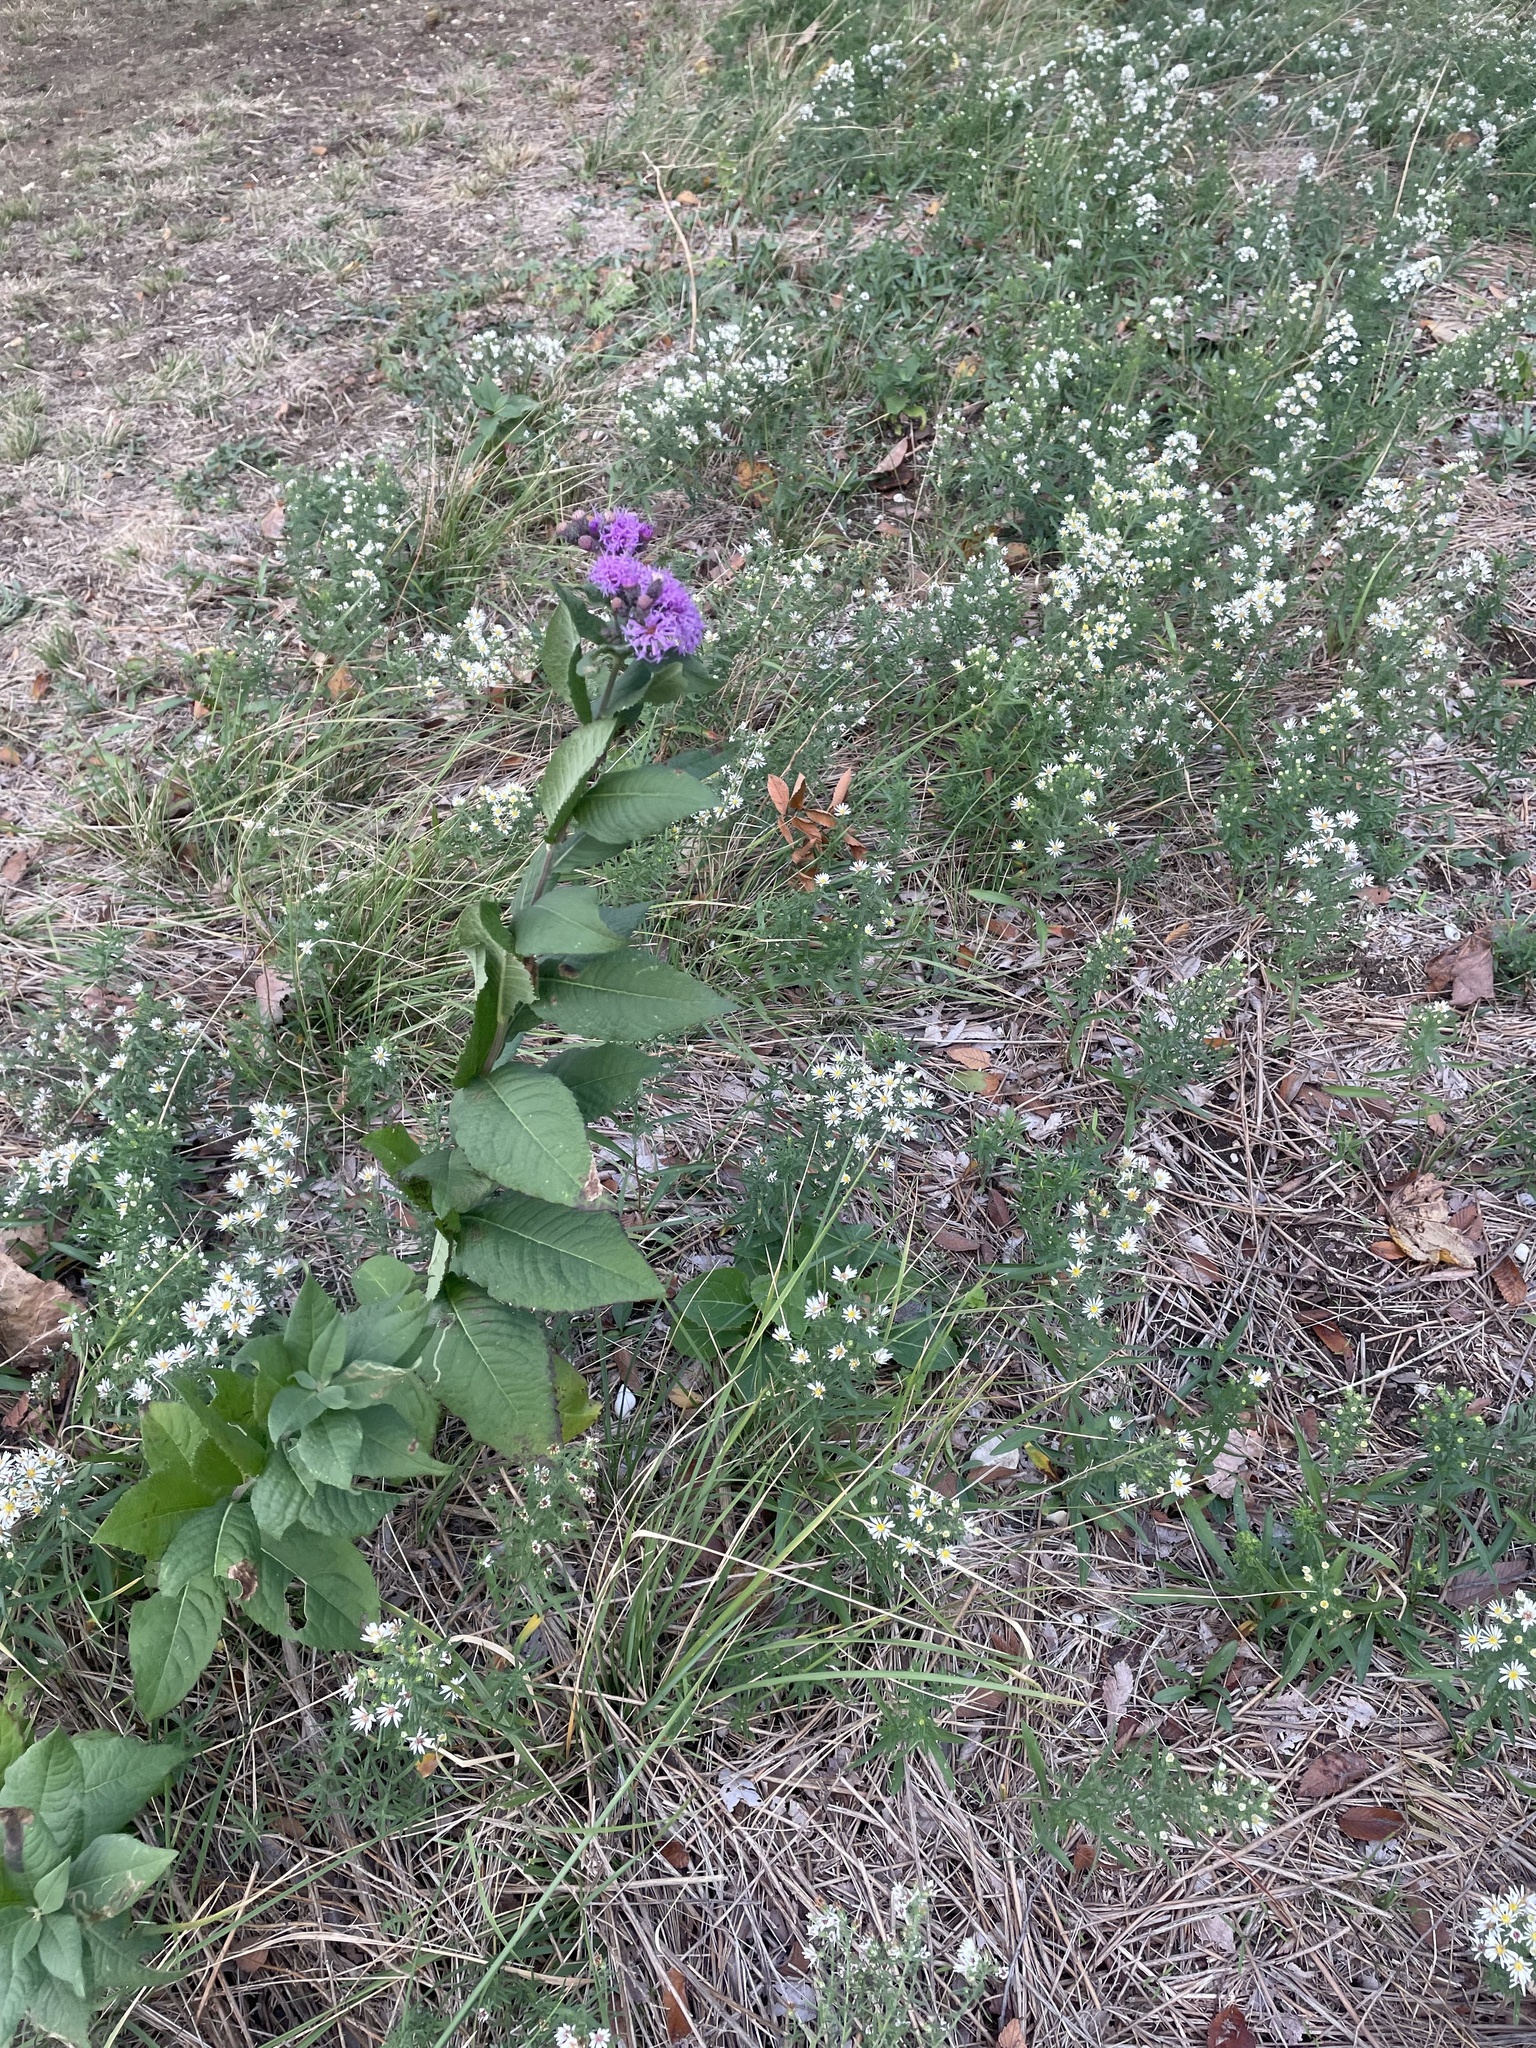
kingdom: Plantae
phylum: Tracheophyta
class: Magnoliopsida
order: Asterales
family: Asteraceae
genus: Vernonia
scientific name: Vernonia baldwinii
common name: Western ironweed
